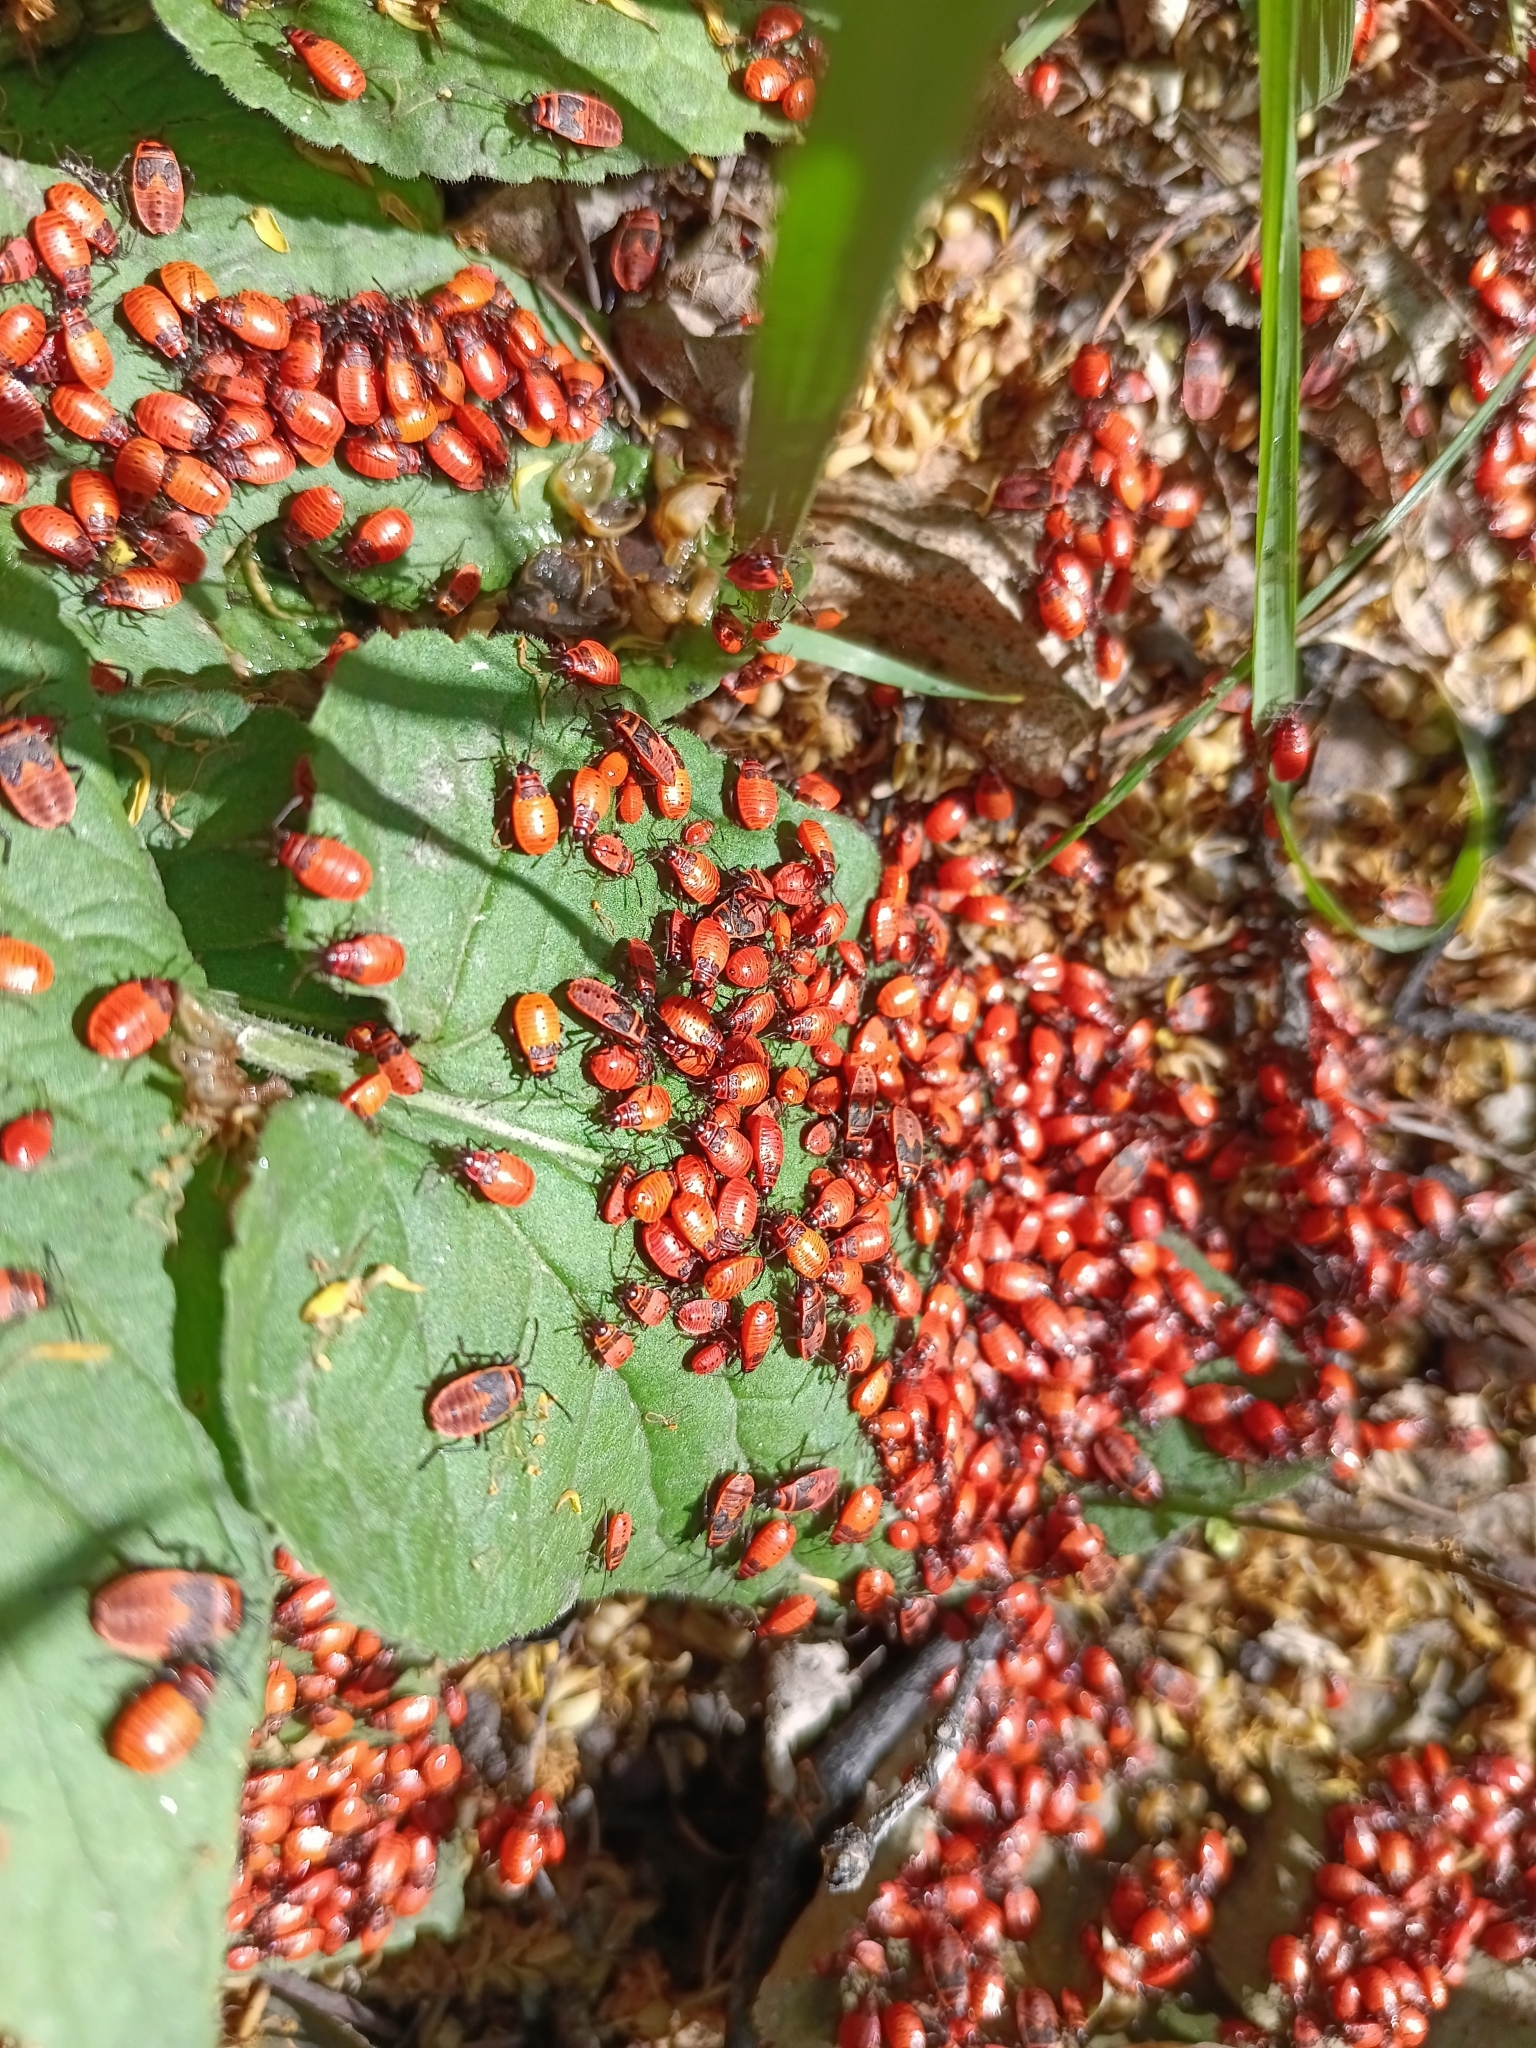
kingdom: Animalia
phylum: Arthropoda
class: Insecta
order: Hemiptera
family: Pyrrhocoridae
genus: Pyrrhocoris
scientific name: Pyrrhocoris apterus
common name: Firebug
